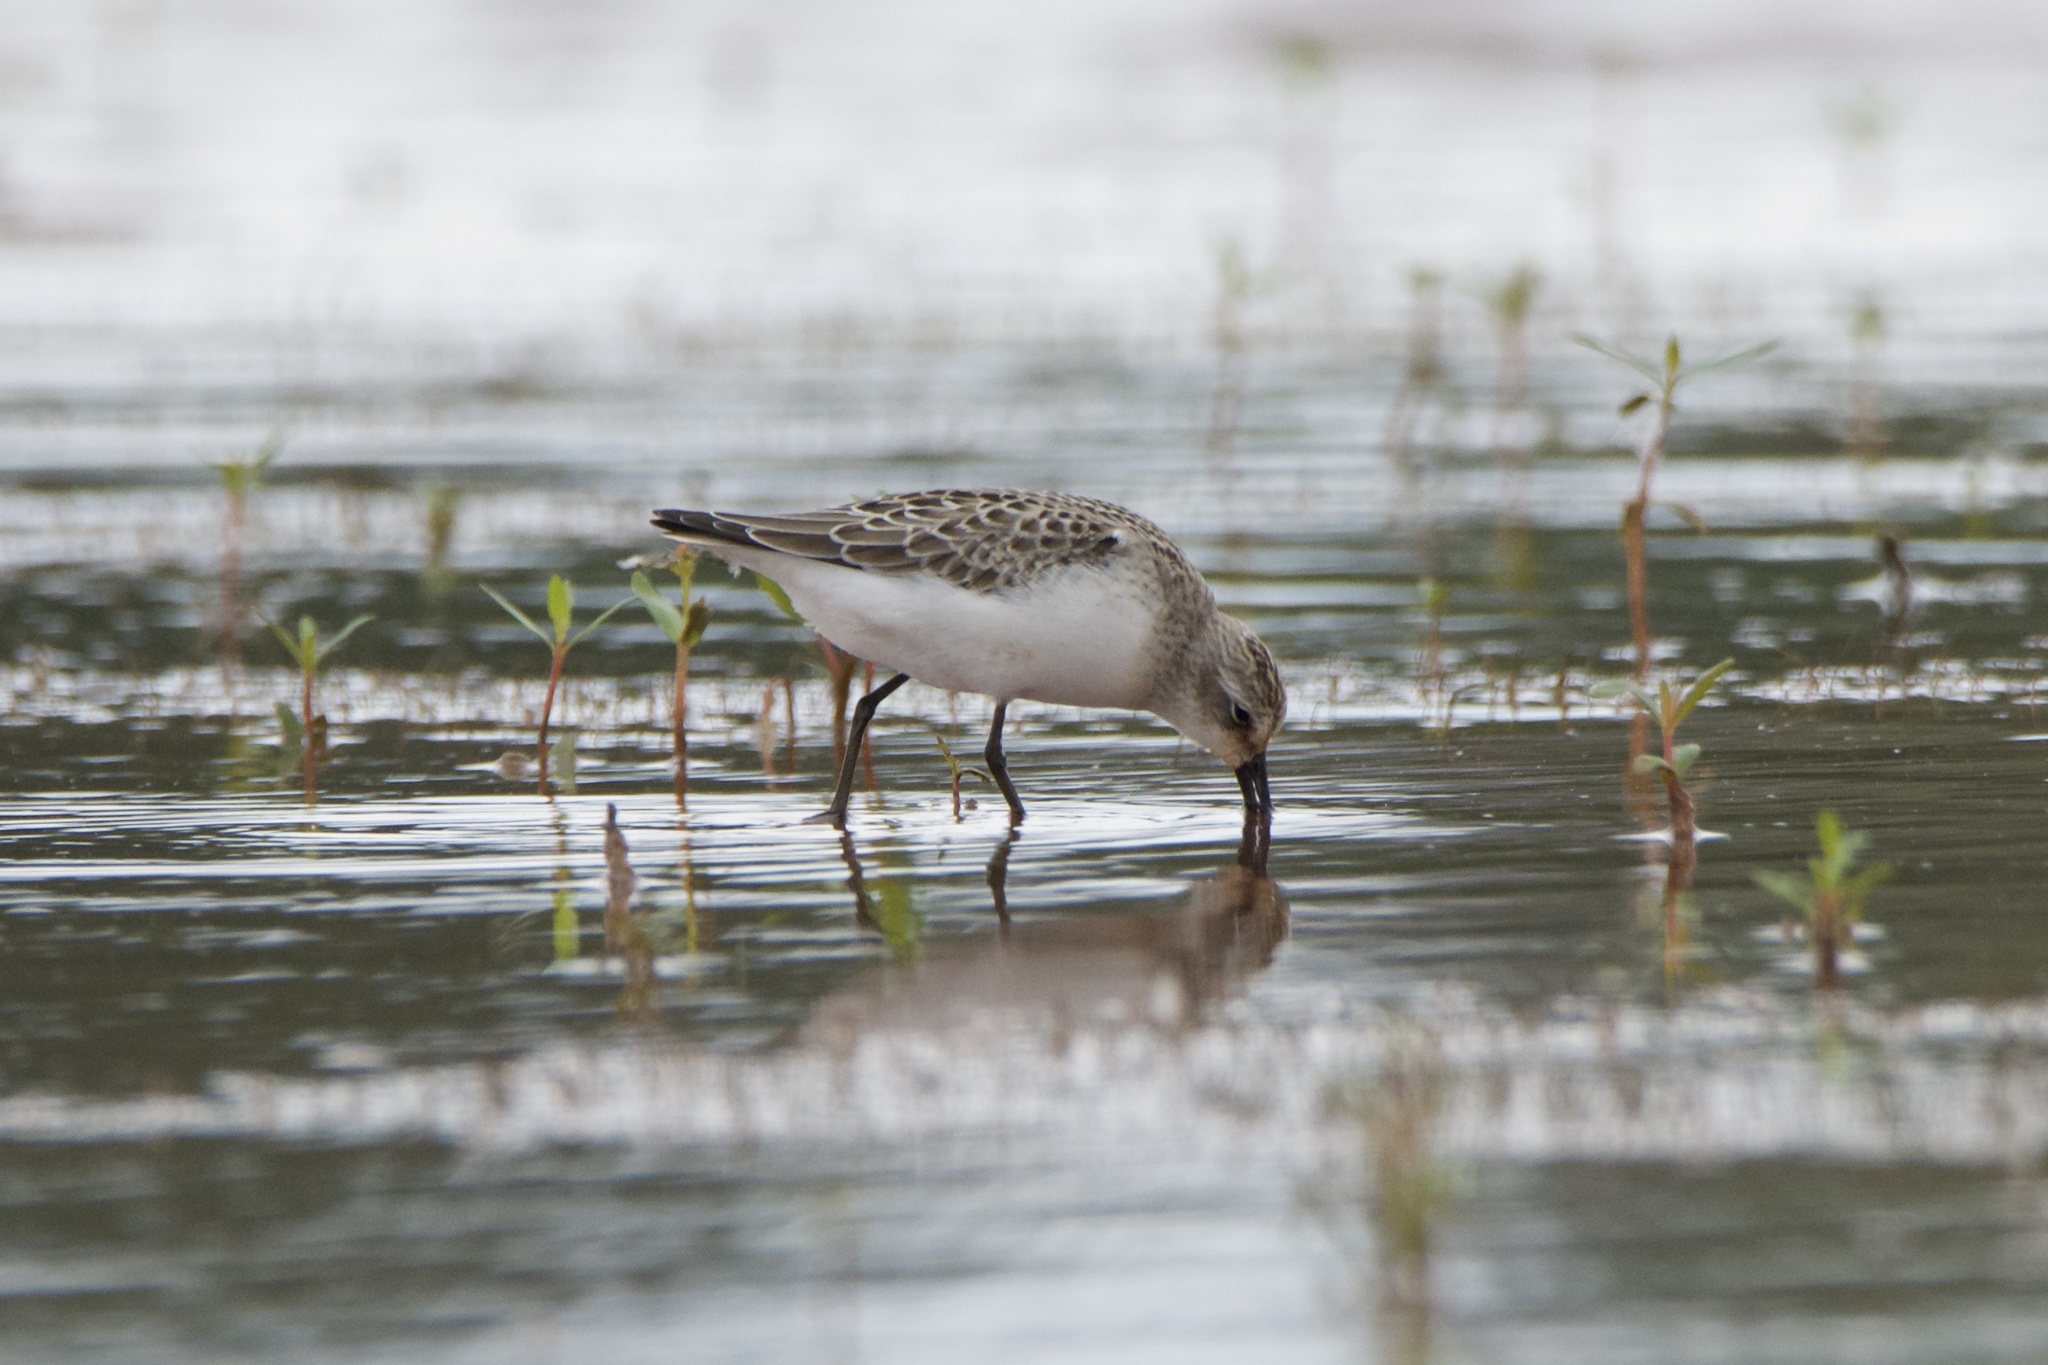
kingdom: Animalia
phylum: Chordata
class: Aves
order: Charadriiformes
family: Scolopacidae
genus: Calidris
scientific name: Calidris pusilla
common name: Semipalmated sandpiper
